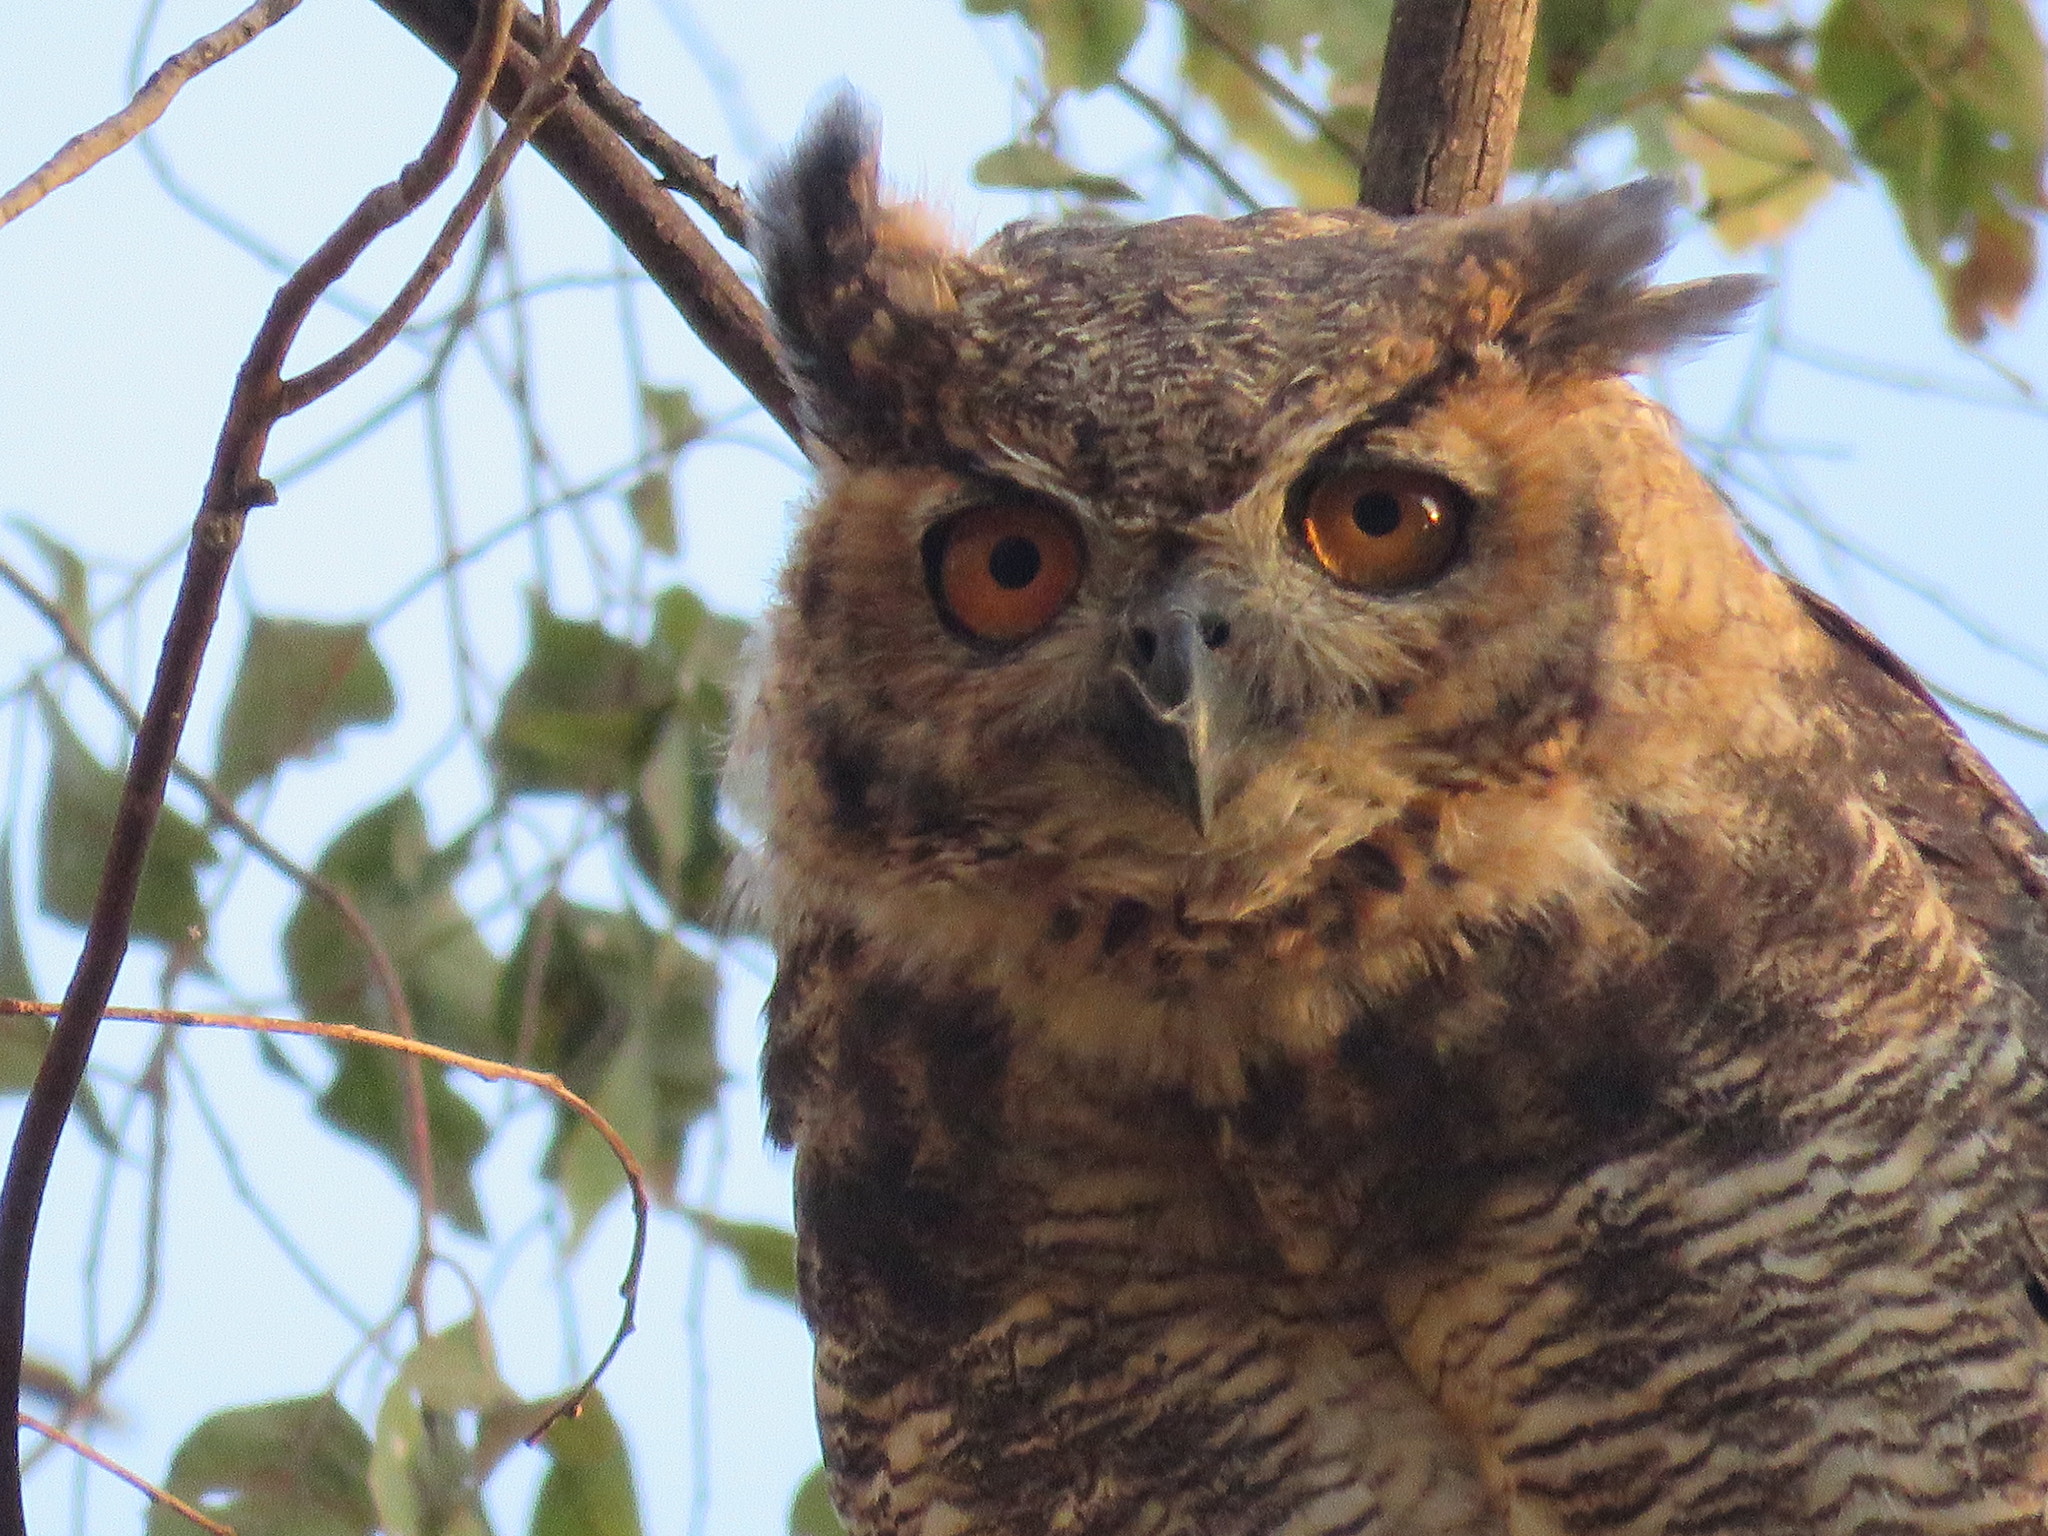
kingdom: Animalia
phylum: Chordata
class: Aves
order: Strigiformes
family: Strigidae
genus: Bubo
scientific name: Bubo virginianus
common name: Great horned owl
